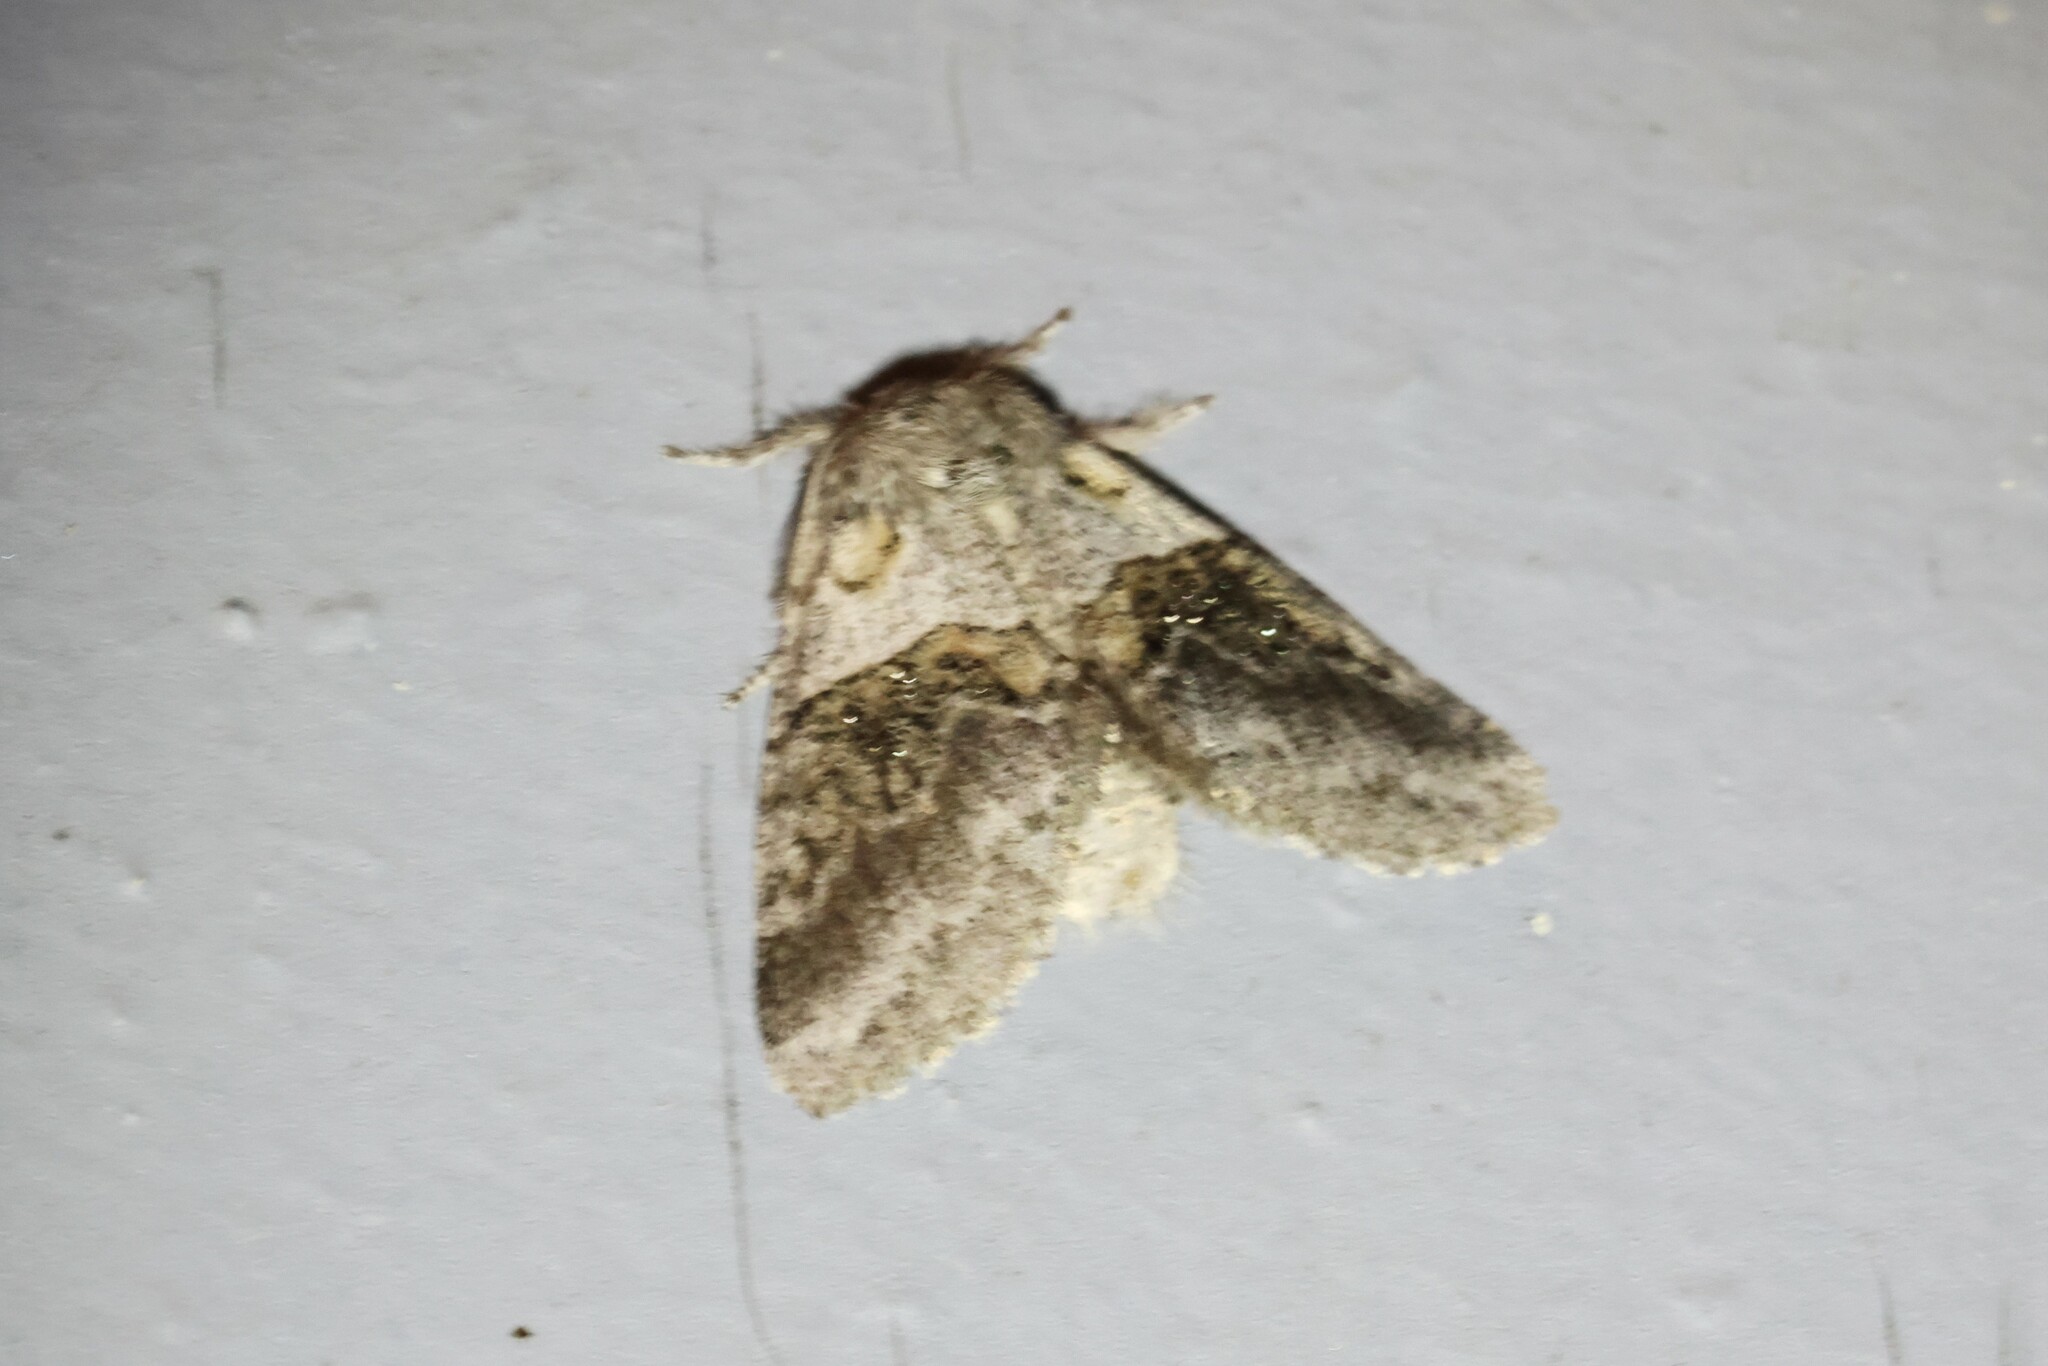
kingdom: Animalia
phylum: Arthropoda
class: Insecta
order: Lepidoptera
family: Notodontidae
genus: Gluphisia
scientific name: Gluphisia septentrionis
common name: Common gluphisia
